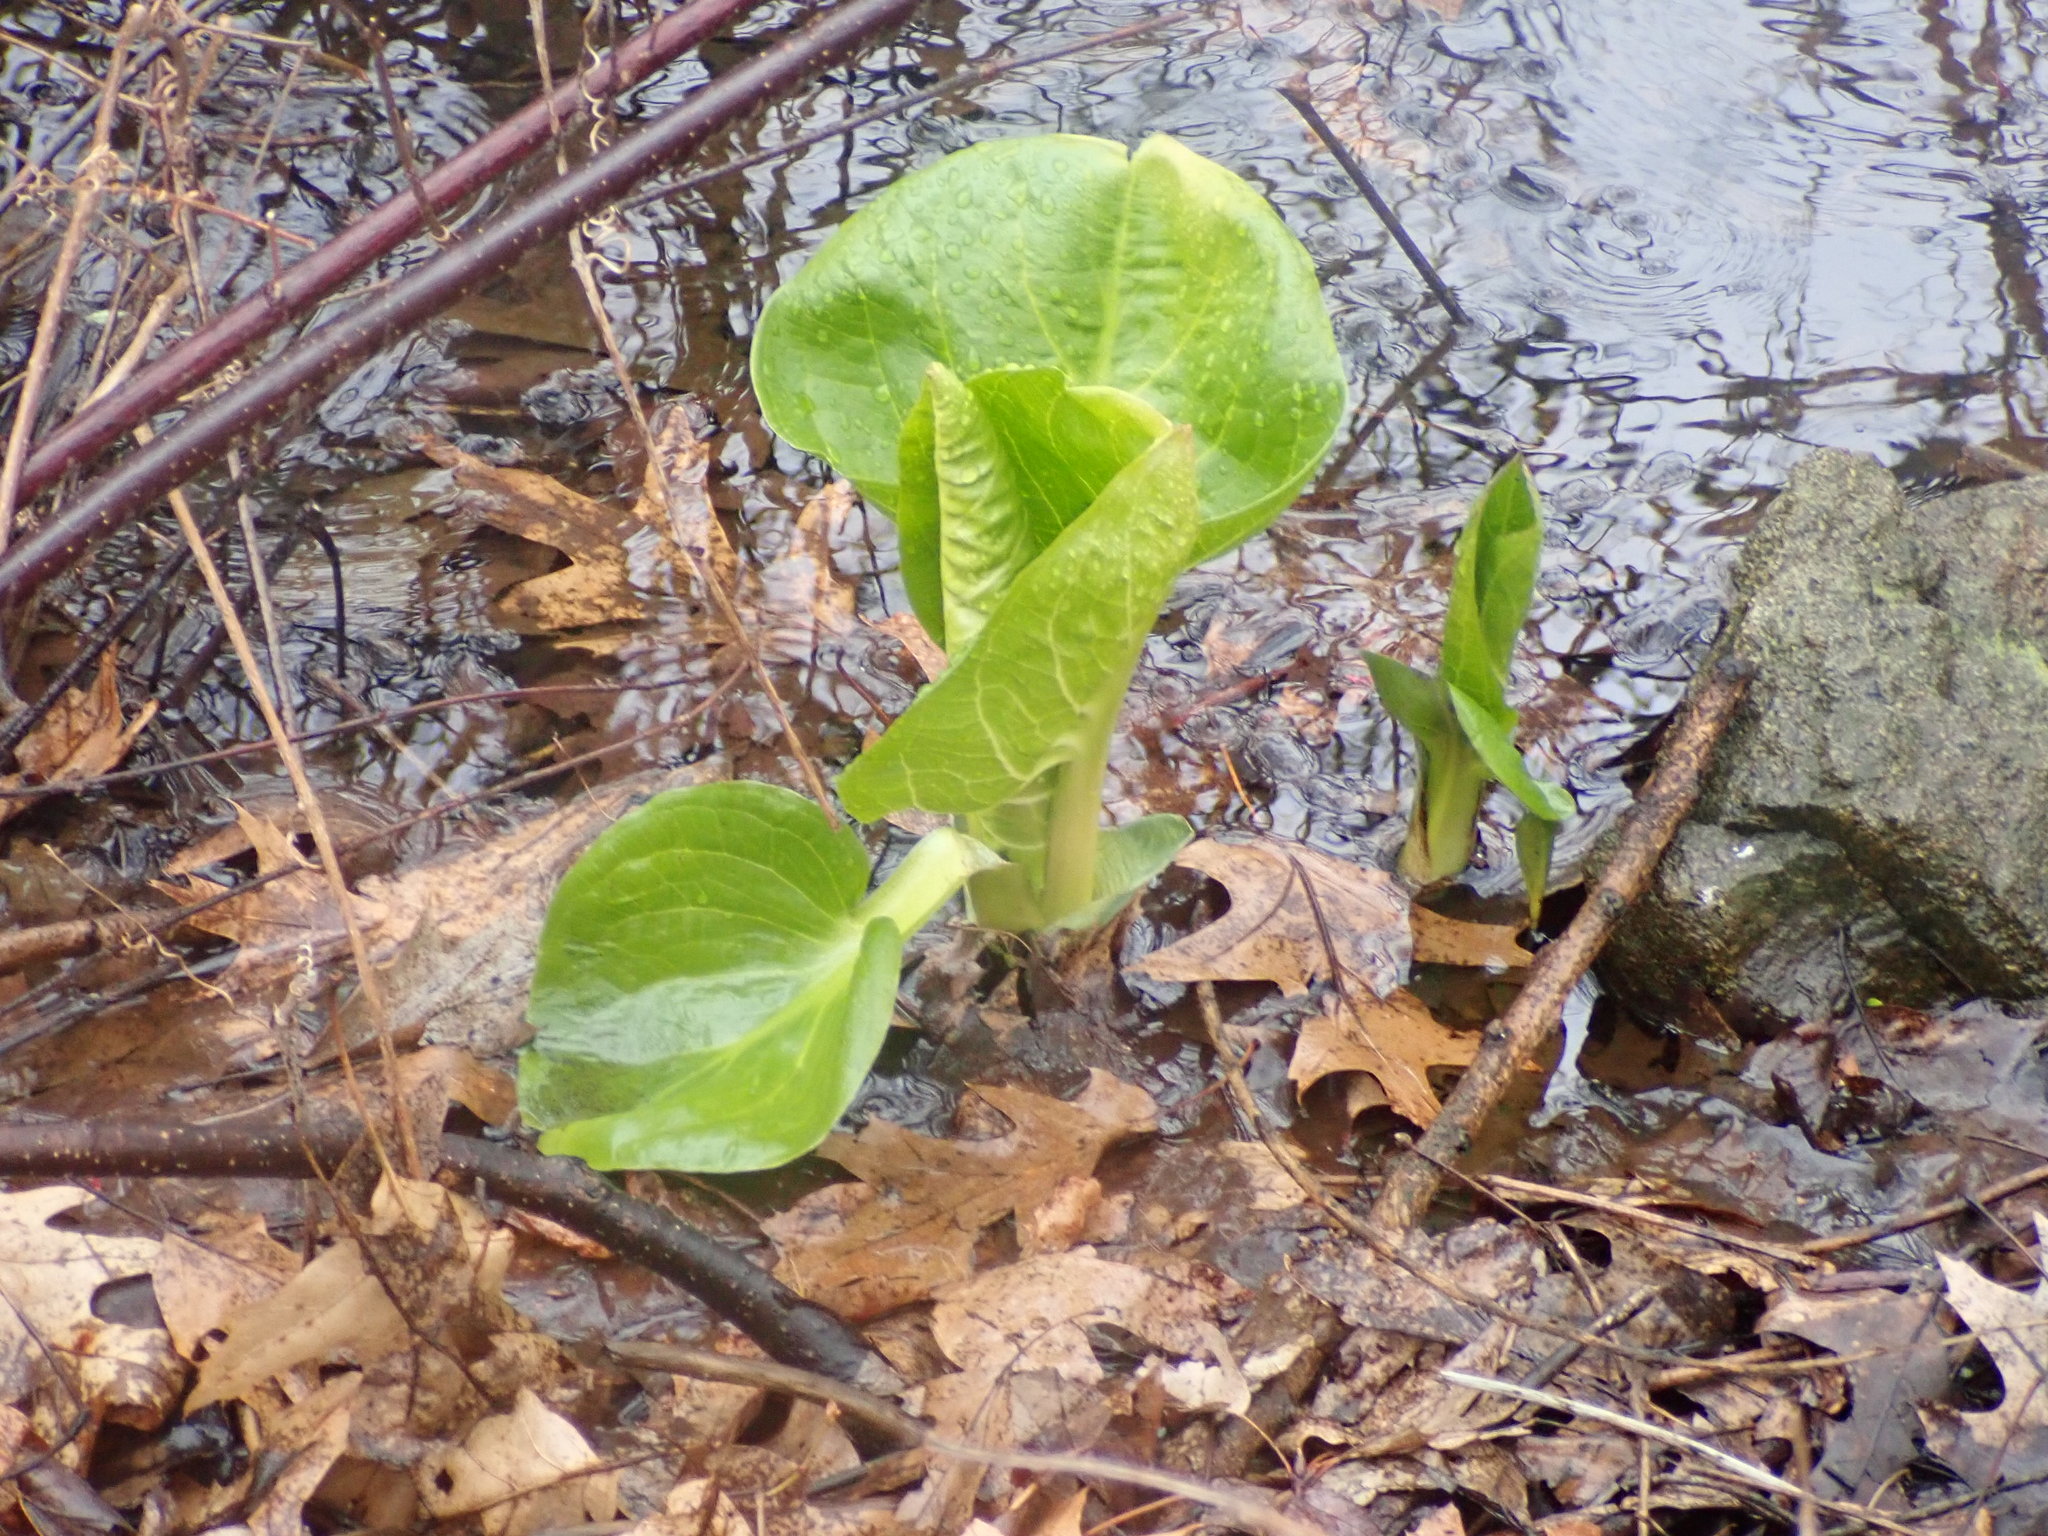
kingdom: Plantae
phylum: Tracheophyta
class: Liliopsida
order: Alismatales
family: Araceae
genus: Symplocarpus
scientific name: Symplocarpus foetidus
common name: Eastern skunk cabbage
